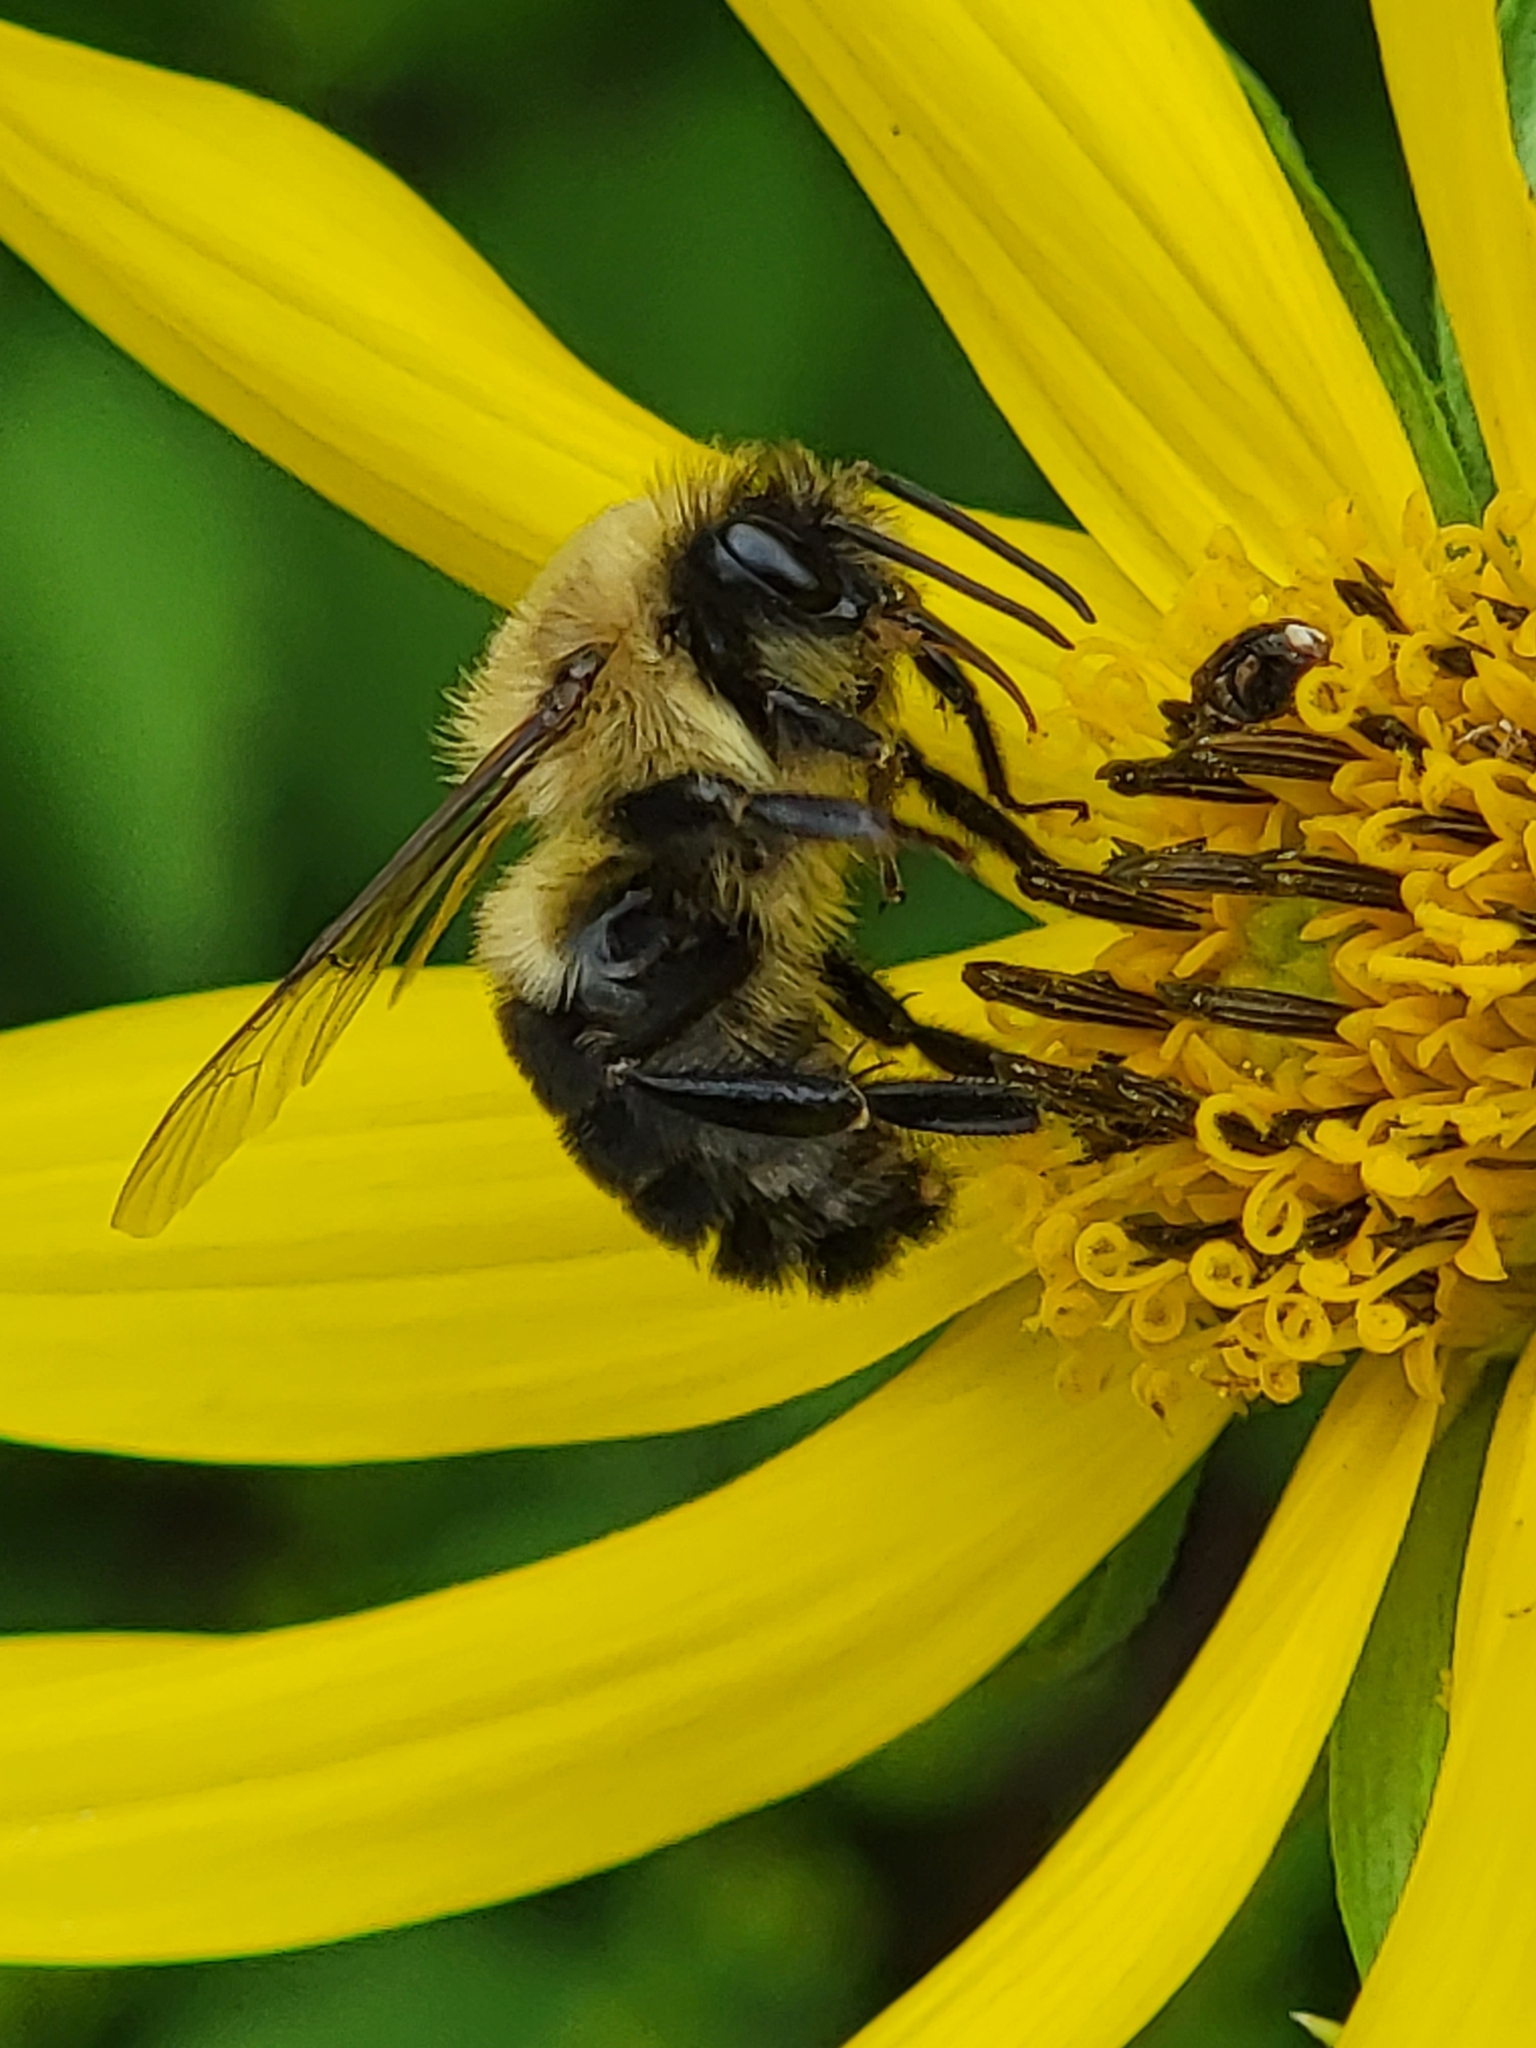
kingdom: Animalia
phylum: Arthropoda
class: Insecta
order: Hymenoptera
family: Apidae
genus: Bombus
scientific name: Bombus impatiens
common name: Common eastern bumble bee
